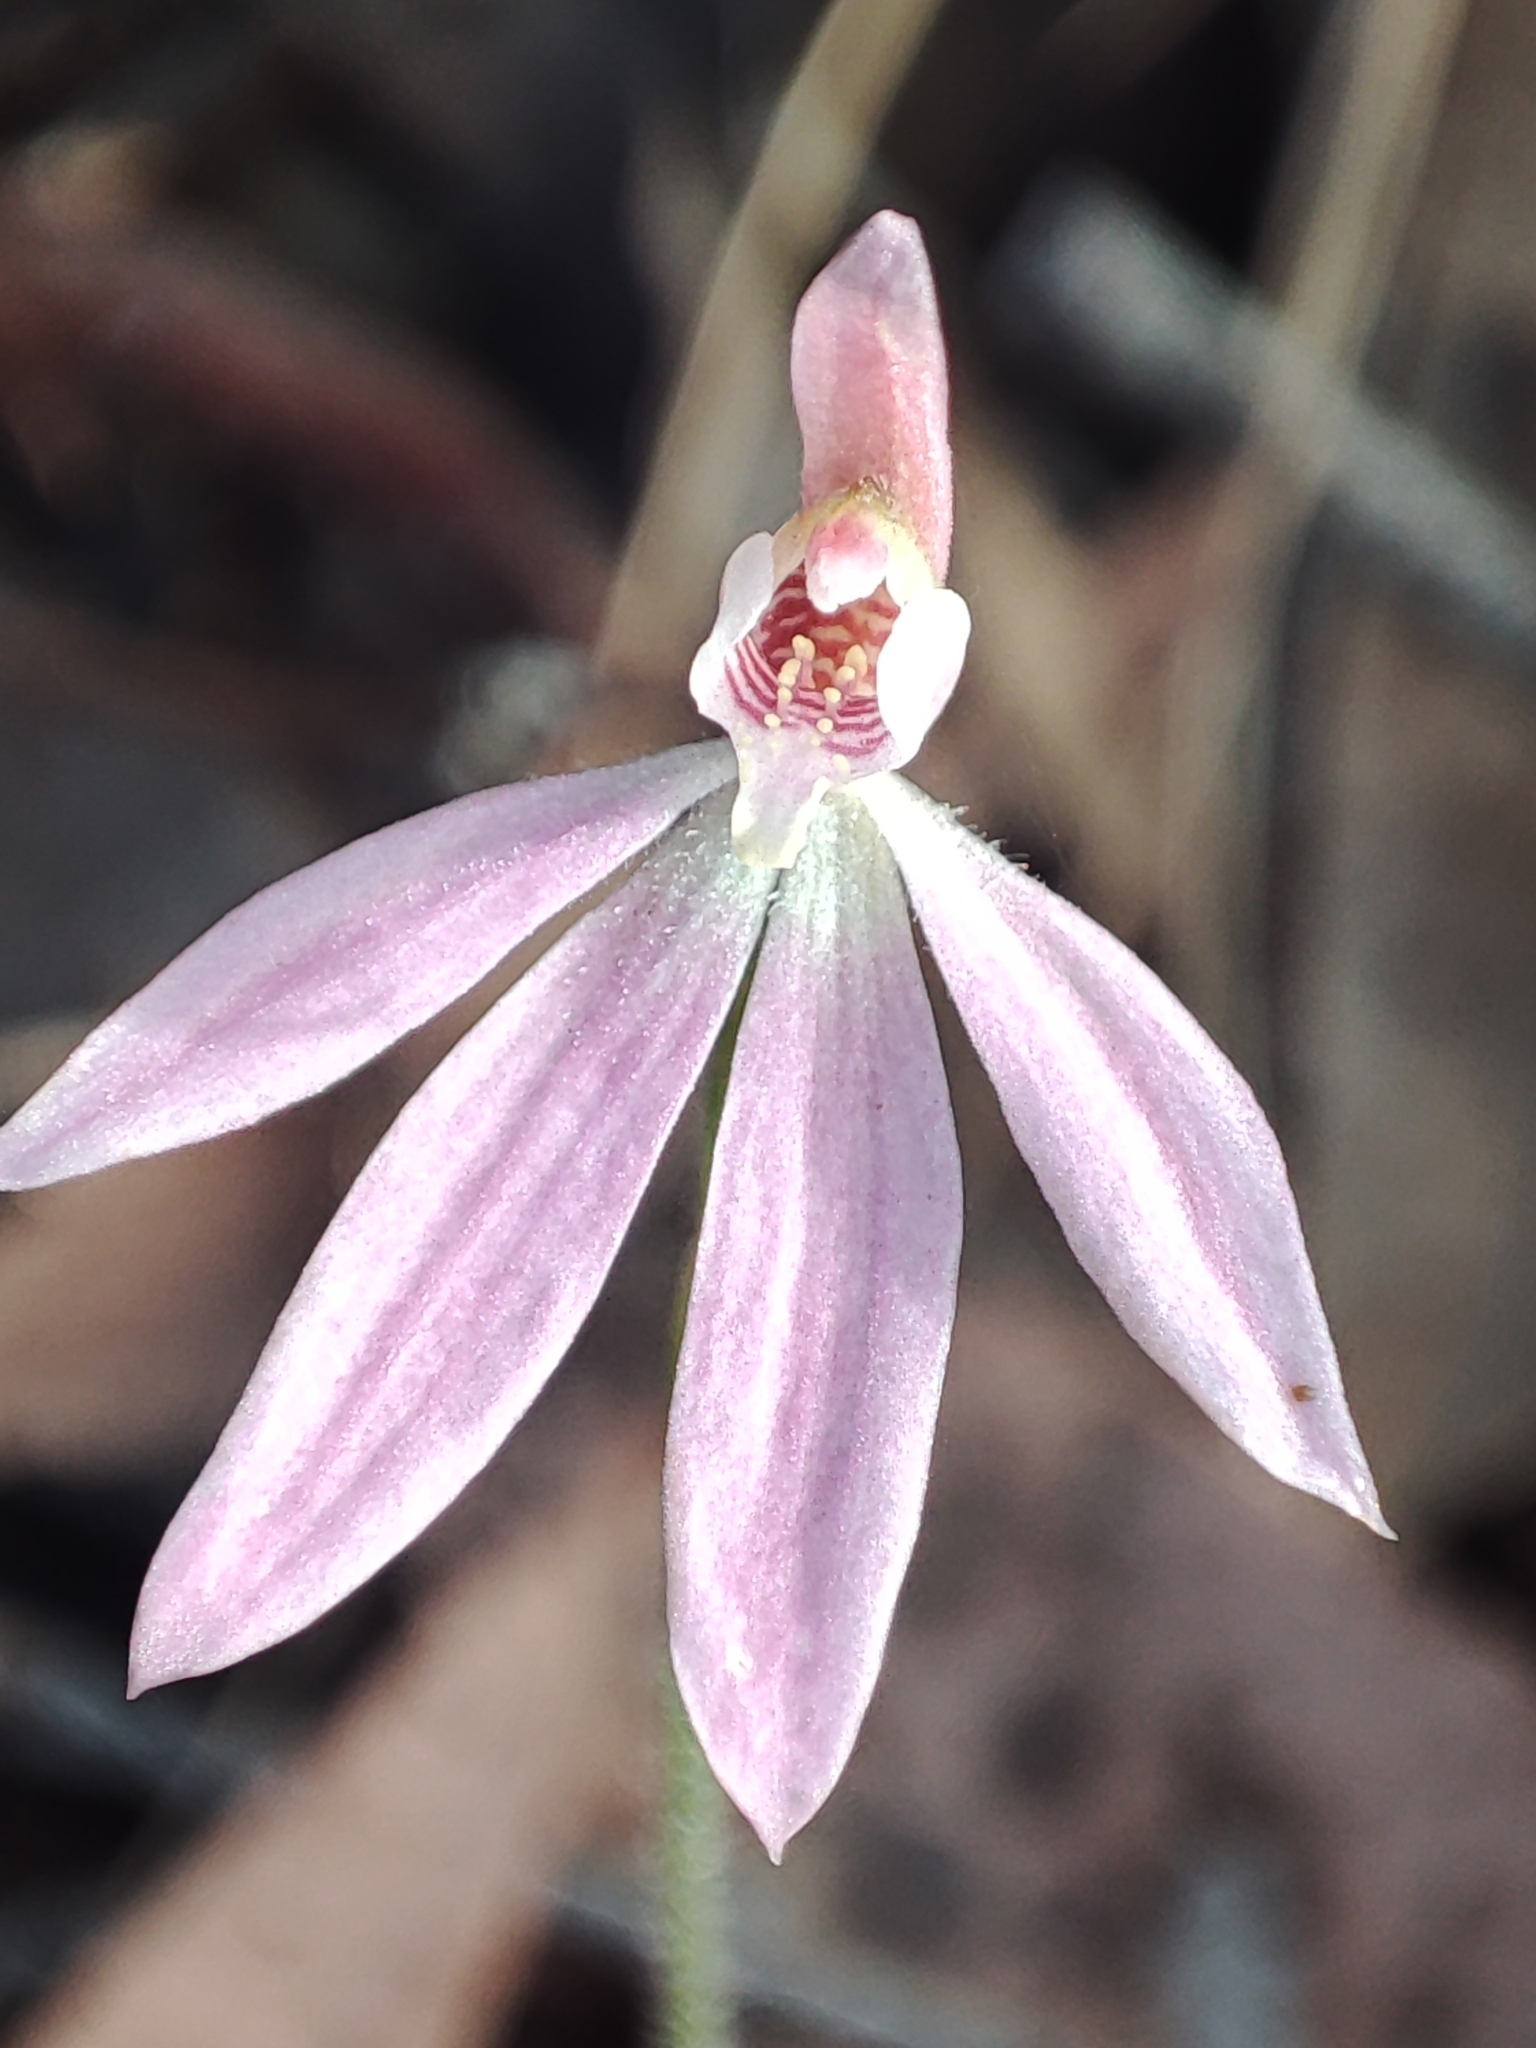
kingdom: Plantae
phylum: Tracheophyta
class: Liliopsida
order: Asparagales
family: Orchidaceae
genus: Caladenia
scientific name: Caladenia carnea
